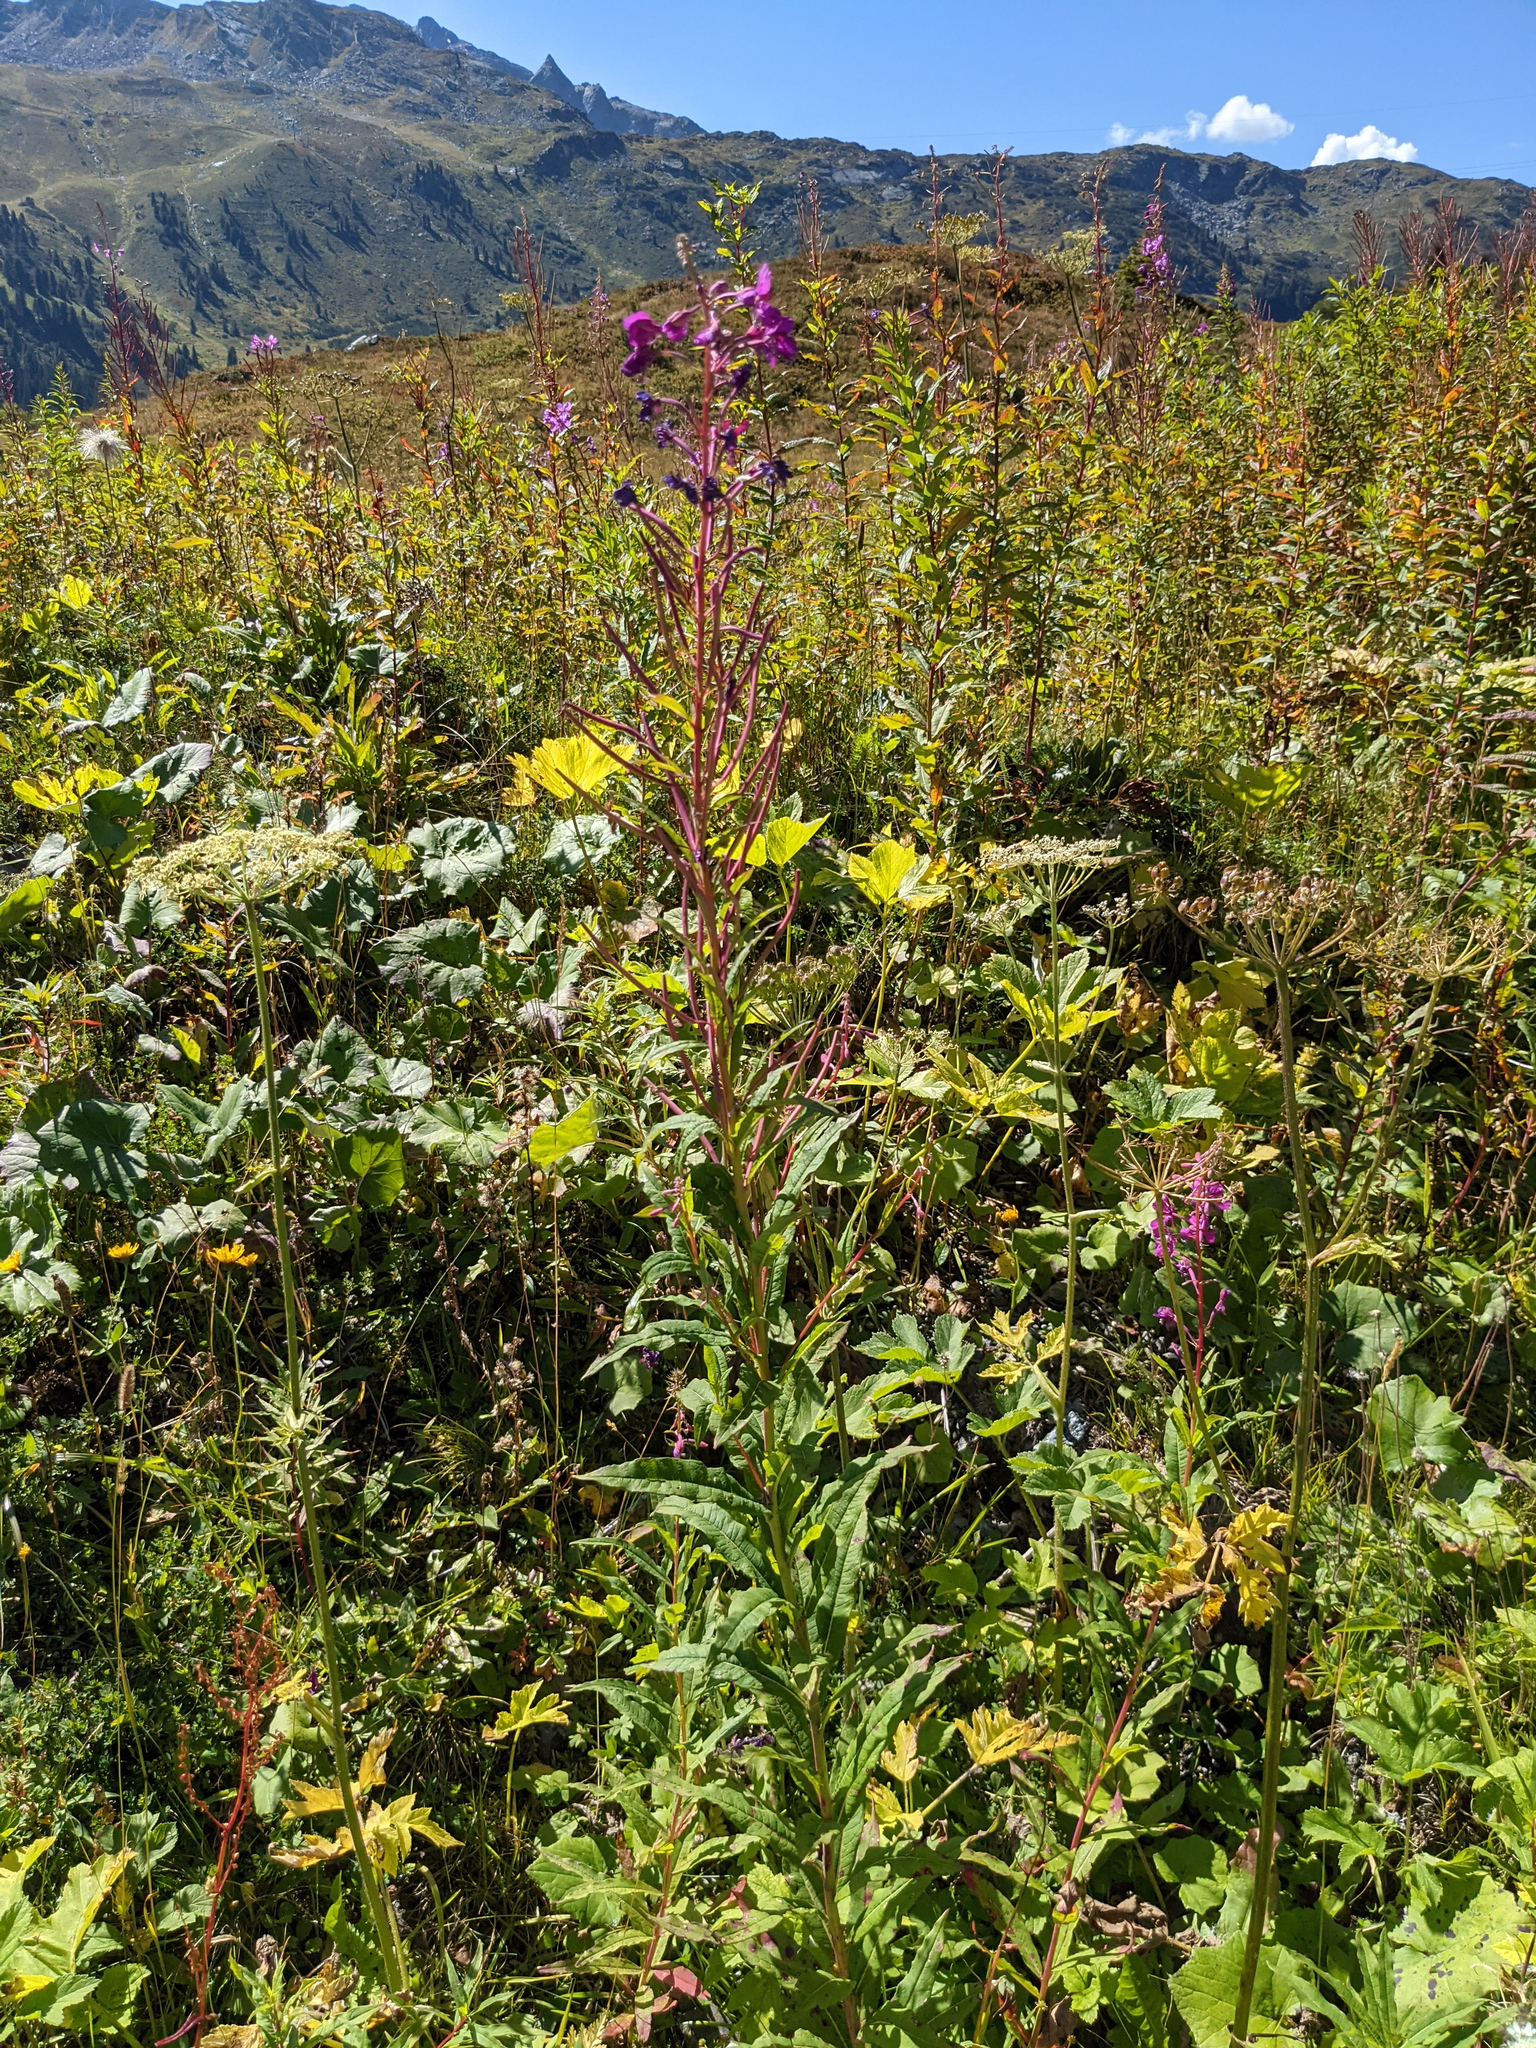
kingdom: Plantae
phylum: Tracheophyta
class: Magnoliopsida
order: Myrtales
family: Onagraceae
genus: Chamaenerion
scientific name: Chamaenerion angustifolium
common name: Fireweed
